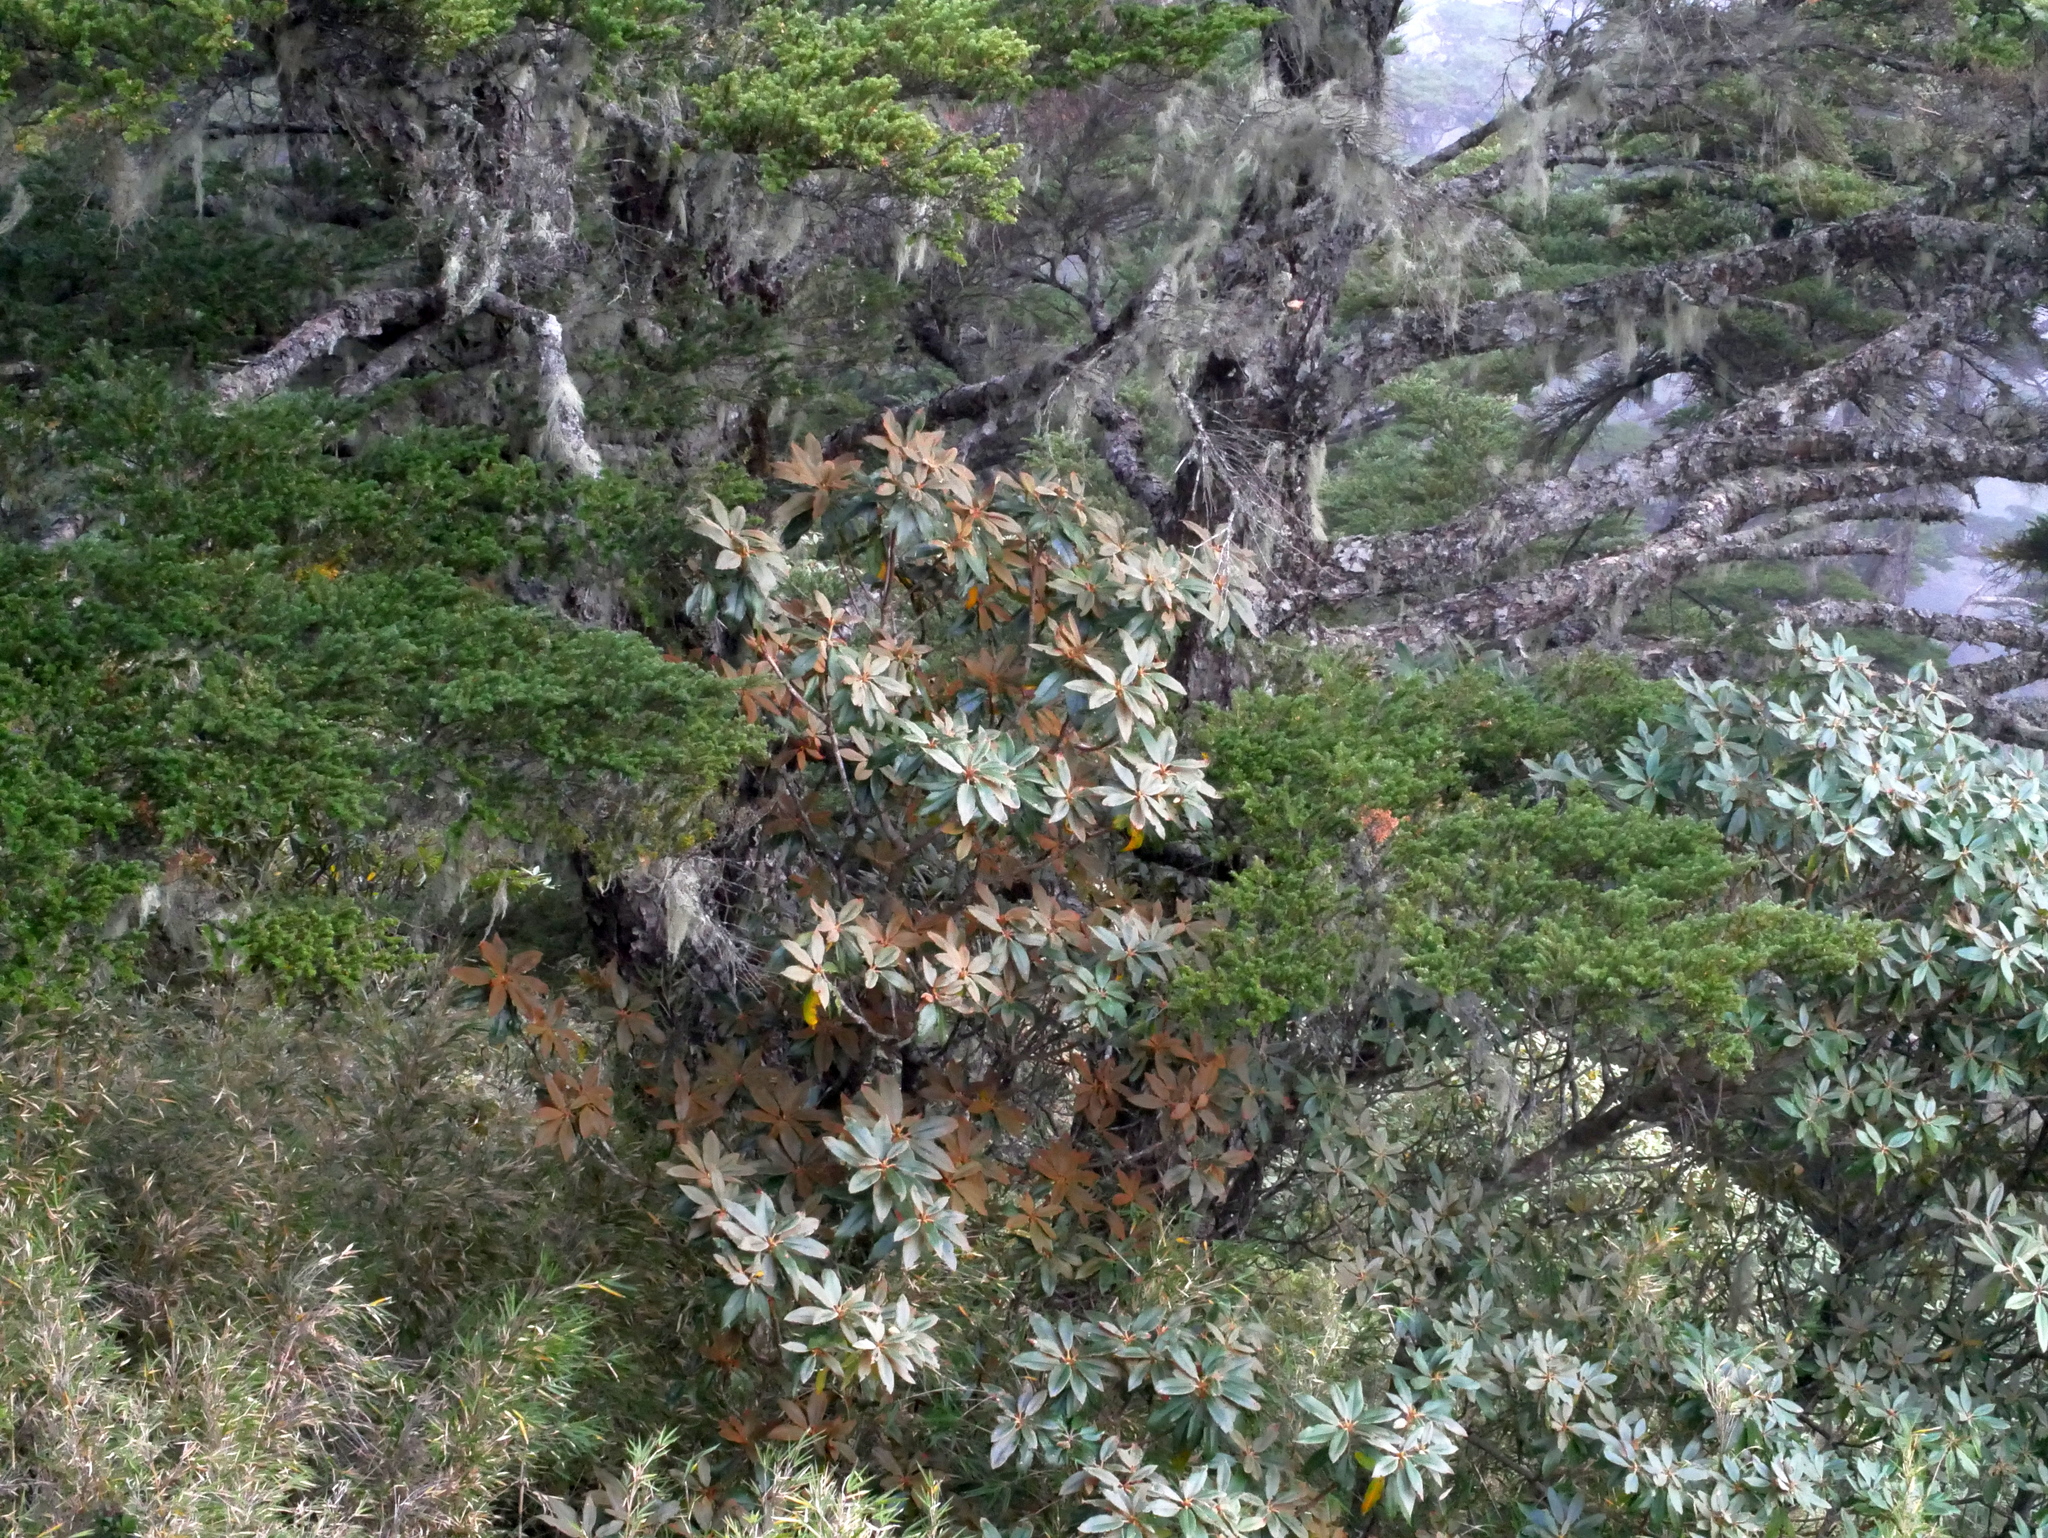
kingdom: Plantae
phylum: Tracheophyta
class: Magnoliopsida
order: Ericales
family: Ericaceae
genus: Rhododendron
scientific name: Rhododendron hyperythrum
